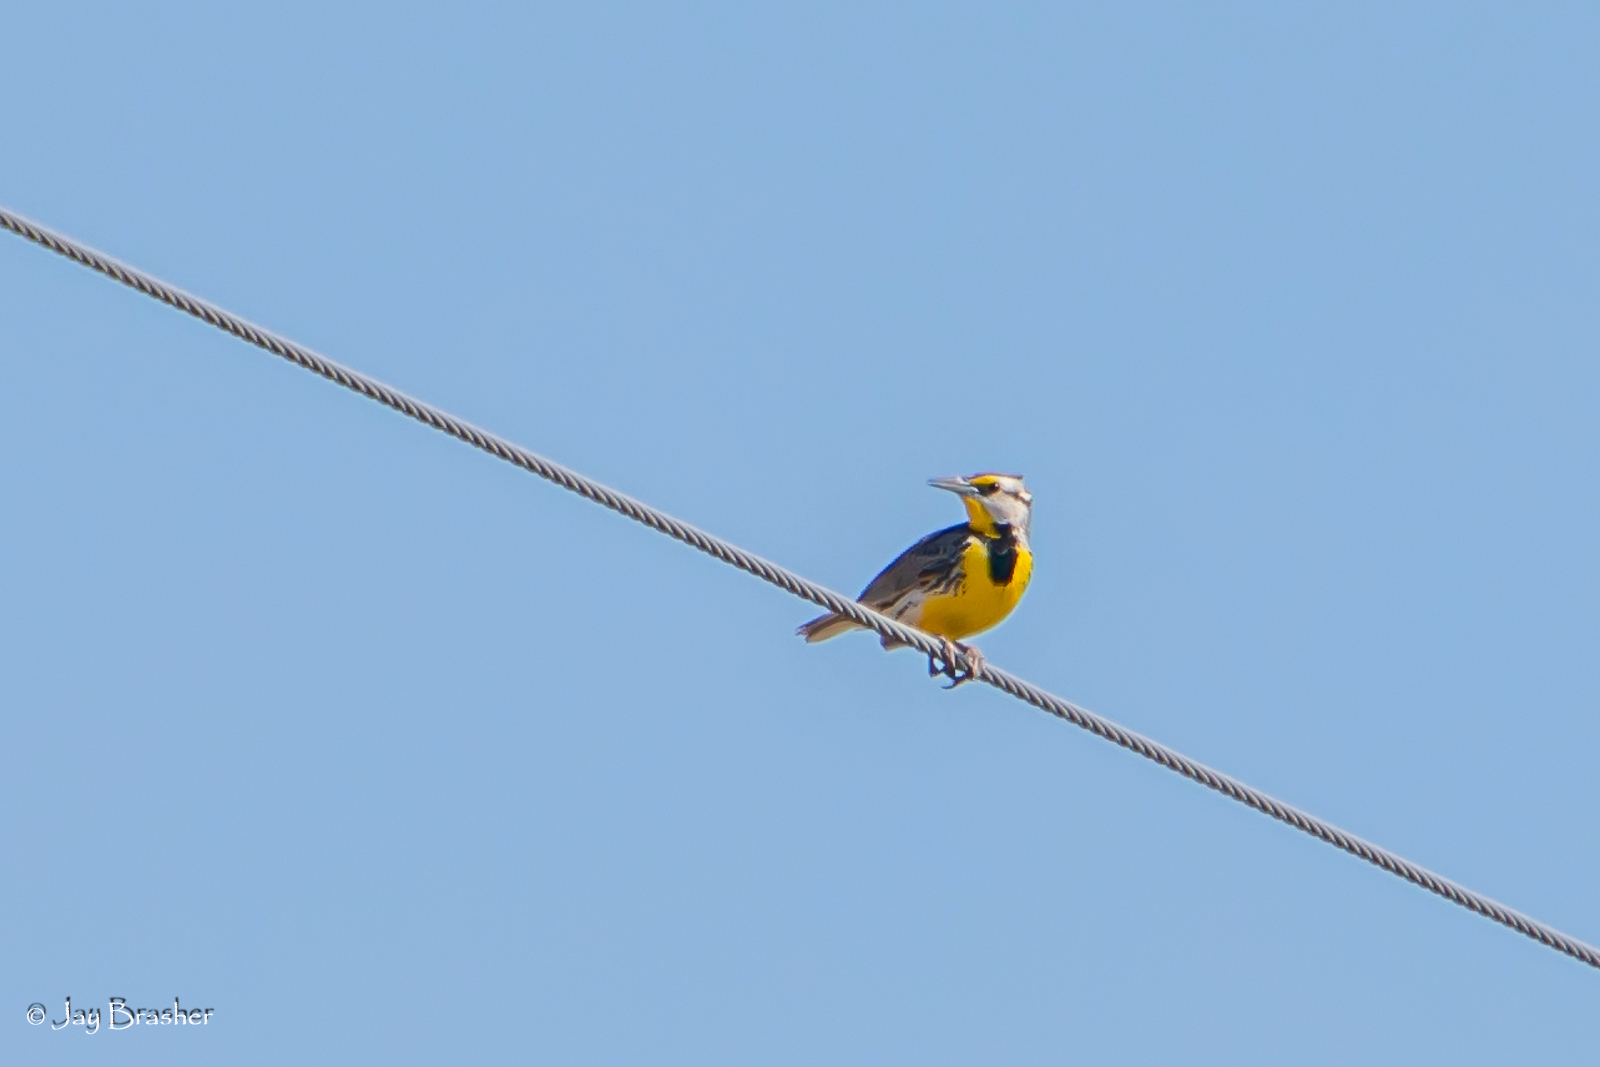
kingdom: Animalia
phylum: Chordata
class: Aves
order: Passeriformes
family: Icteridae
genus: Sturnella
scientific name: Sturnella magna
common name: Eastern meadowlark
